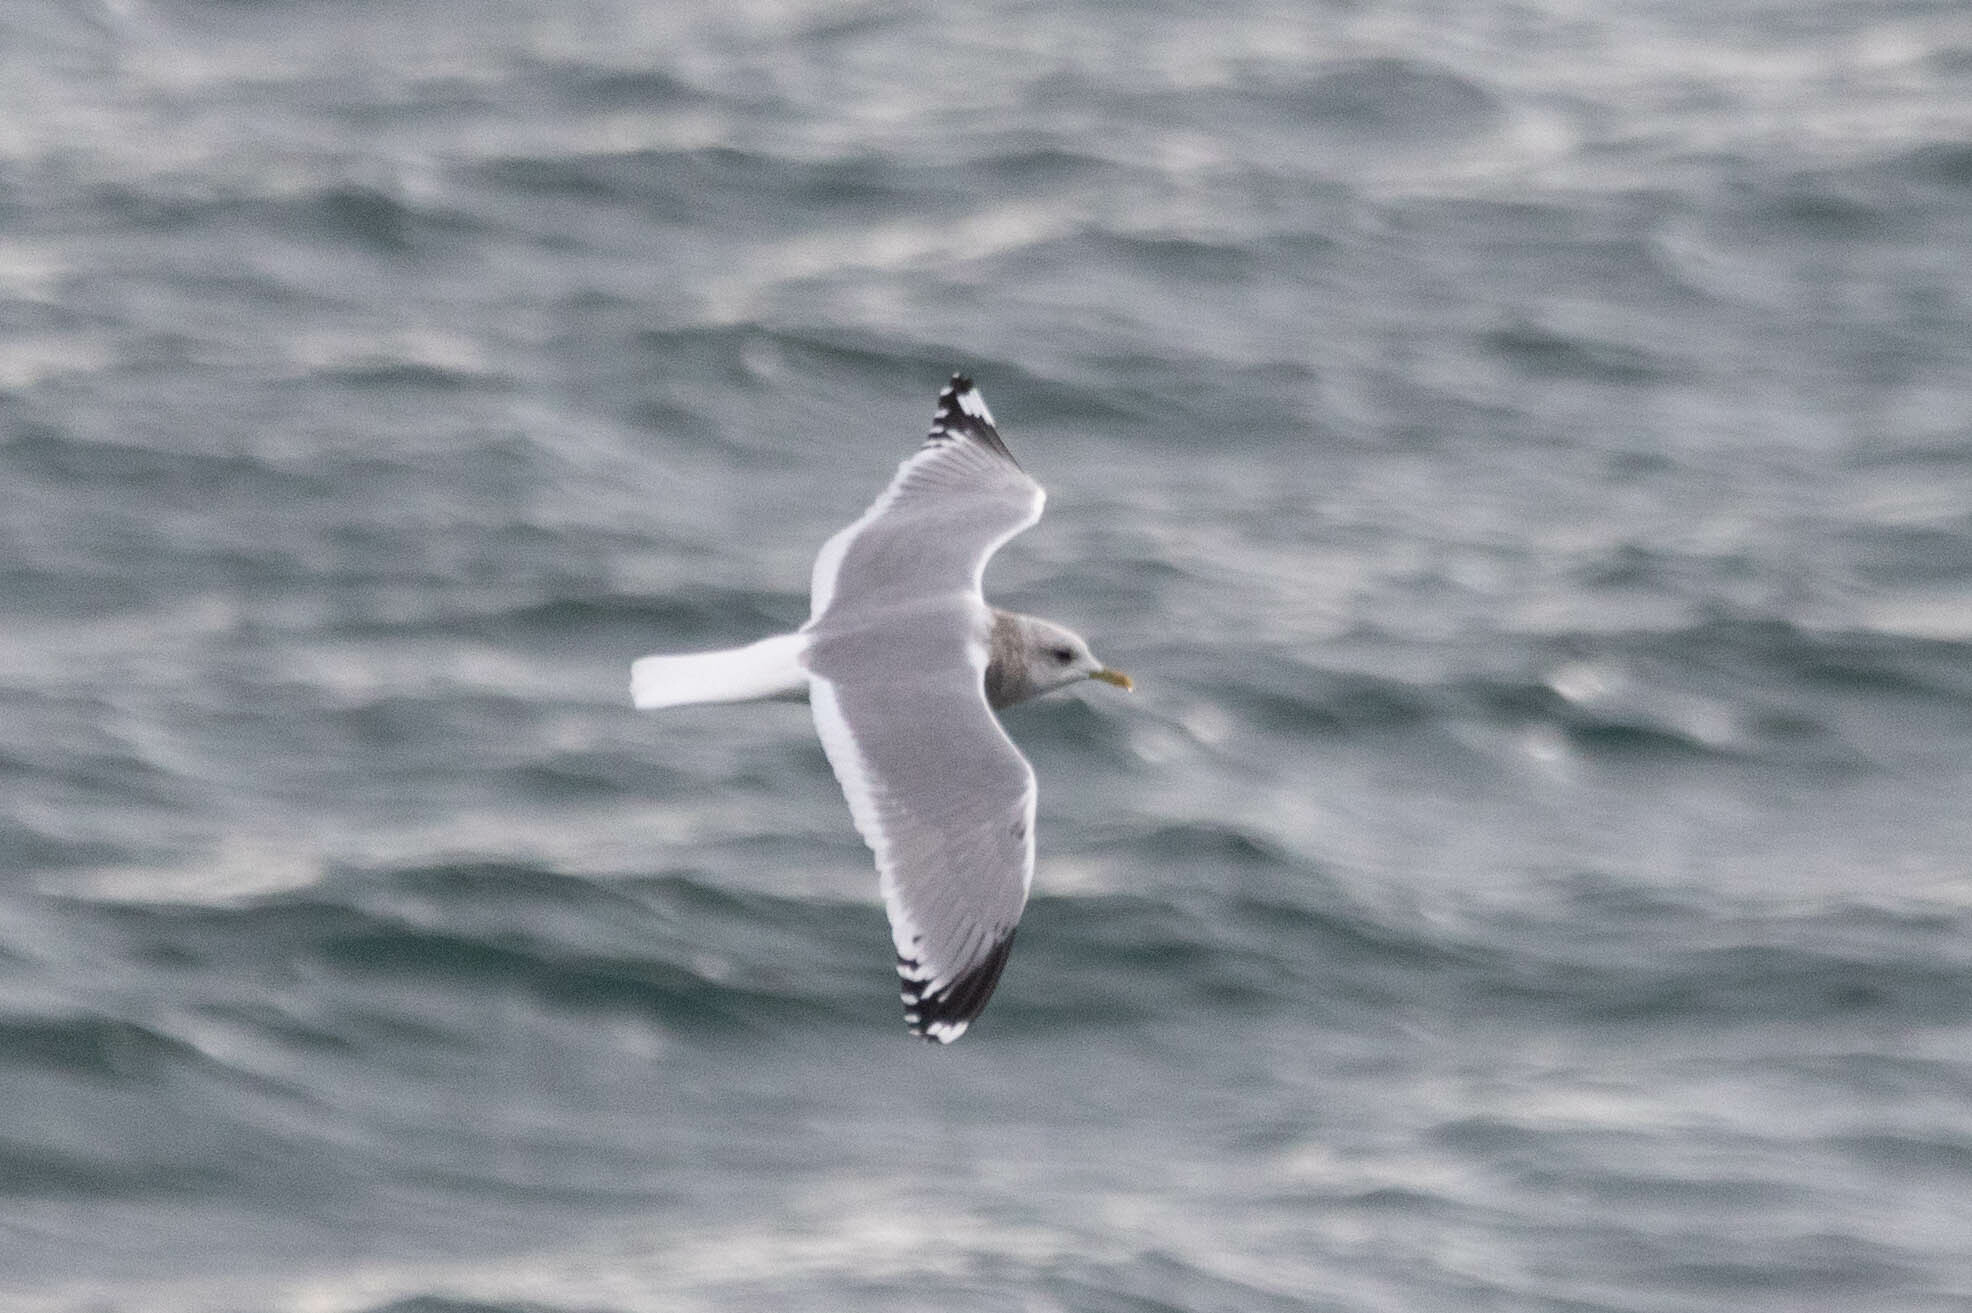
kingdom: Animalia
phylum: Chordata
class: Aves
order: Charadriiformes
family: Laridae
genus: Larus
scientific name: Larus brachyrhynchus
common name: Short-billed gull
